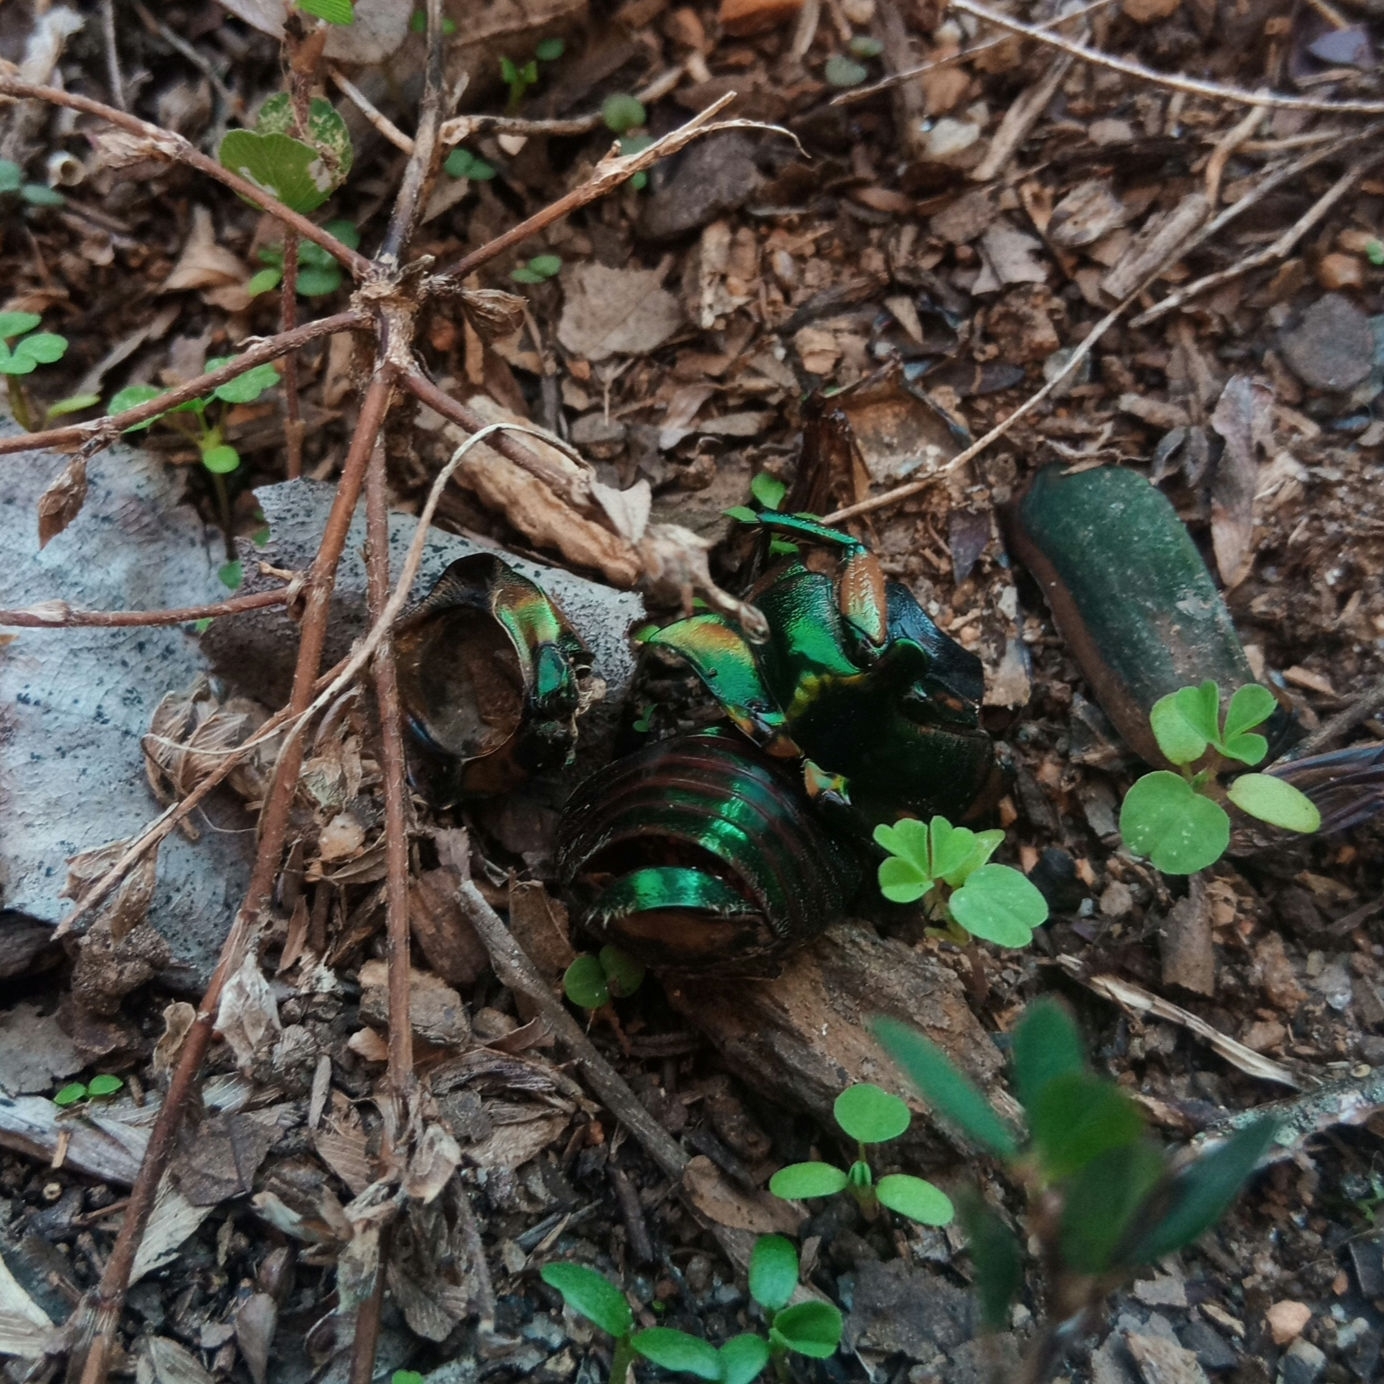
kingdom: Animalia
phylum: Arthropoda
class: Insecta
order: Coleoptera
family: Scarabaeidae
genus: Cotinis
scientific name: Cotinis nitida
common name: Common green june beetle
